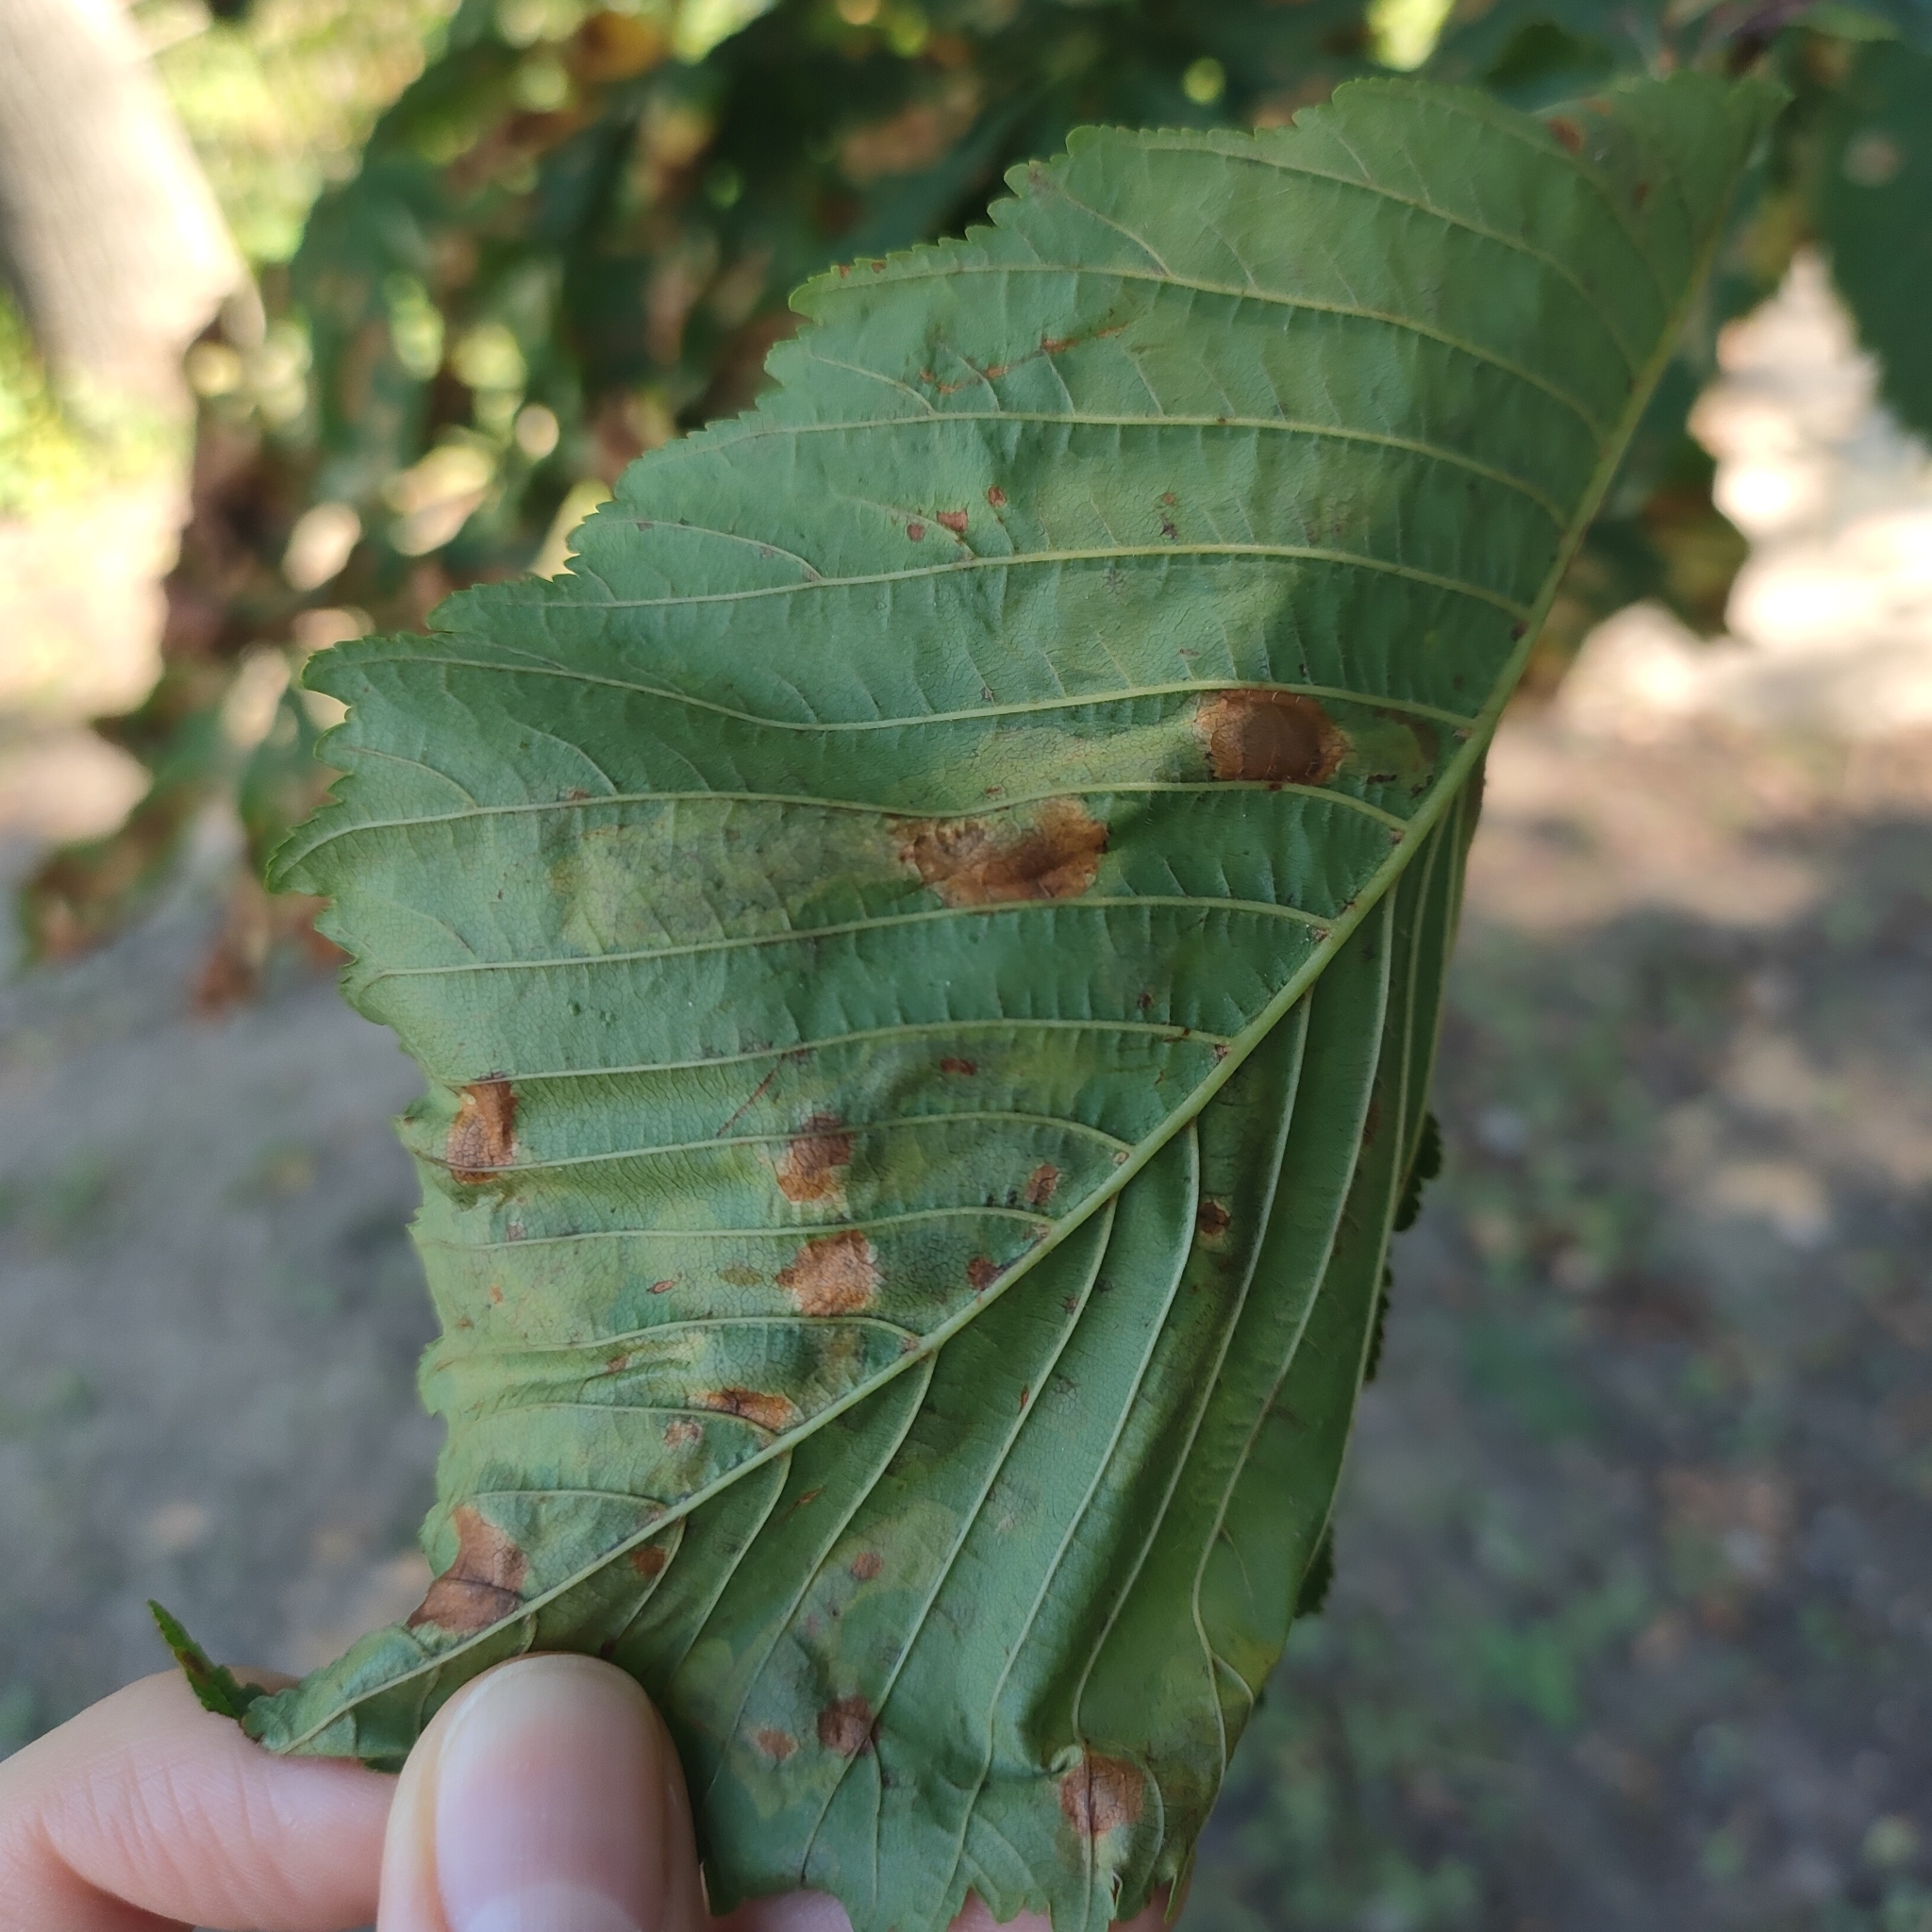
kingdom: Animalia
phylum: Arthropoda
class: Insecta
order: Lepidoptera
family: Gracillariidae
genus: Cameraria
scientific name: Cameraria ohridella
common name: Horse-chestnut leaf-miner
